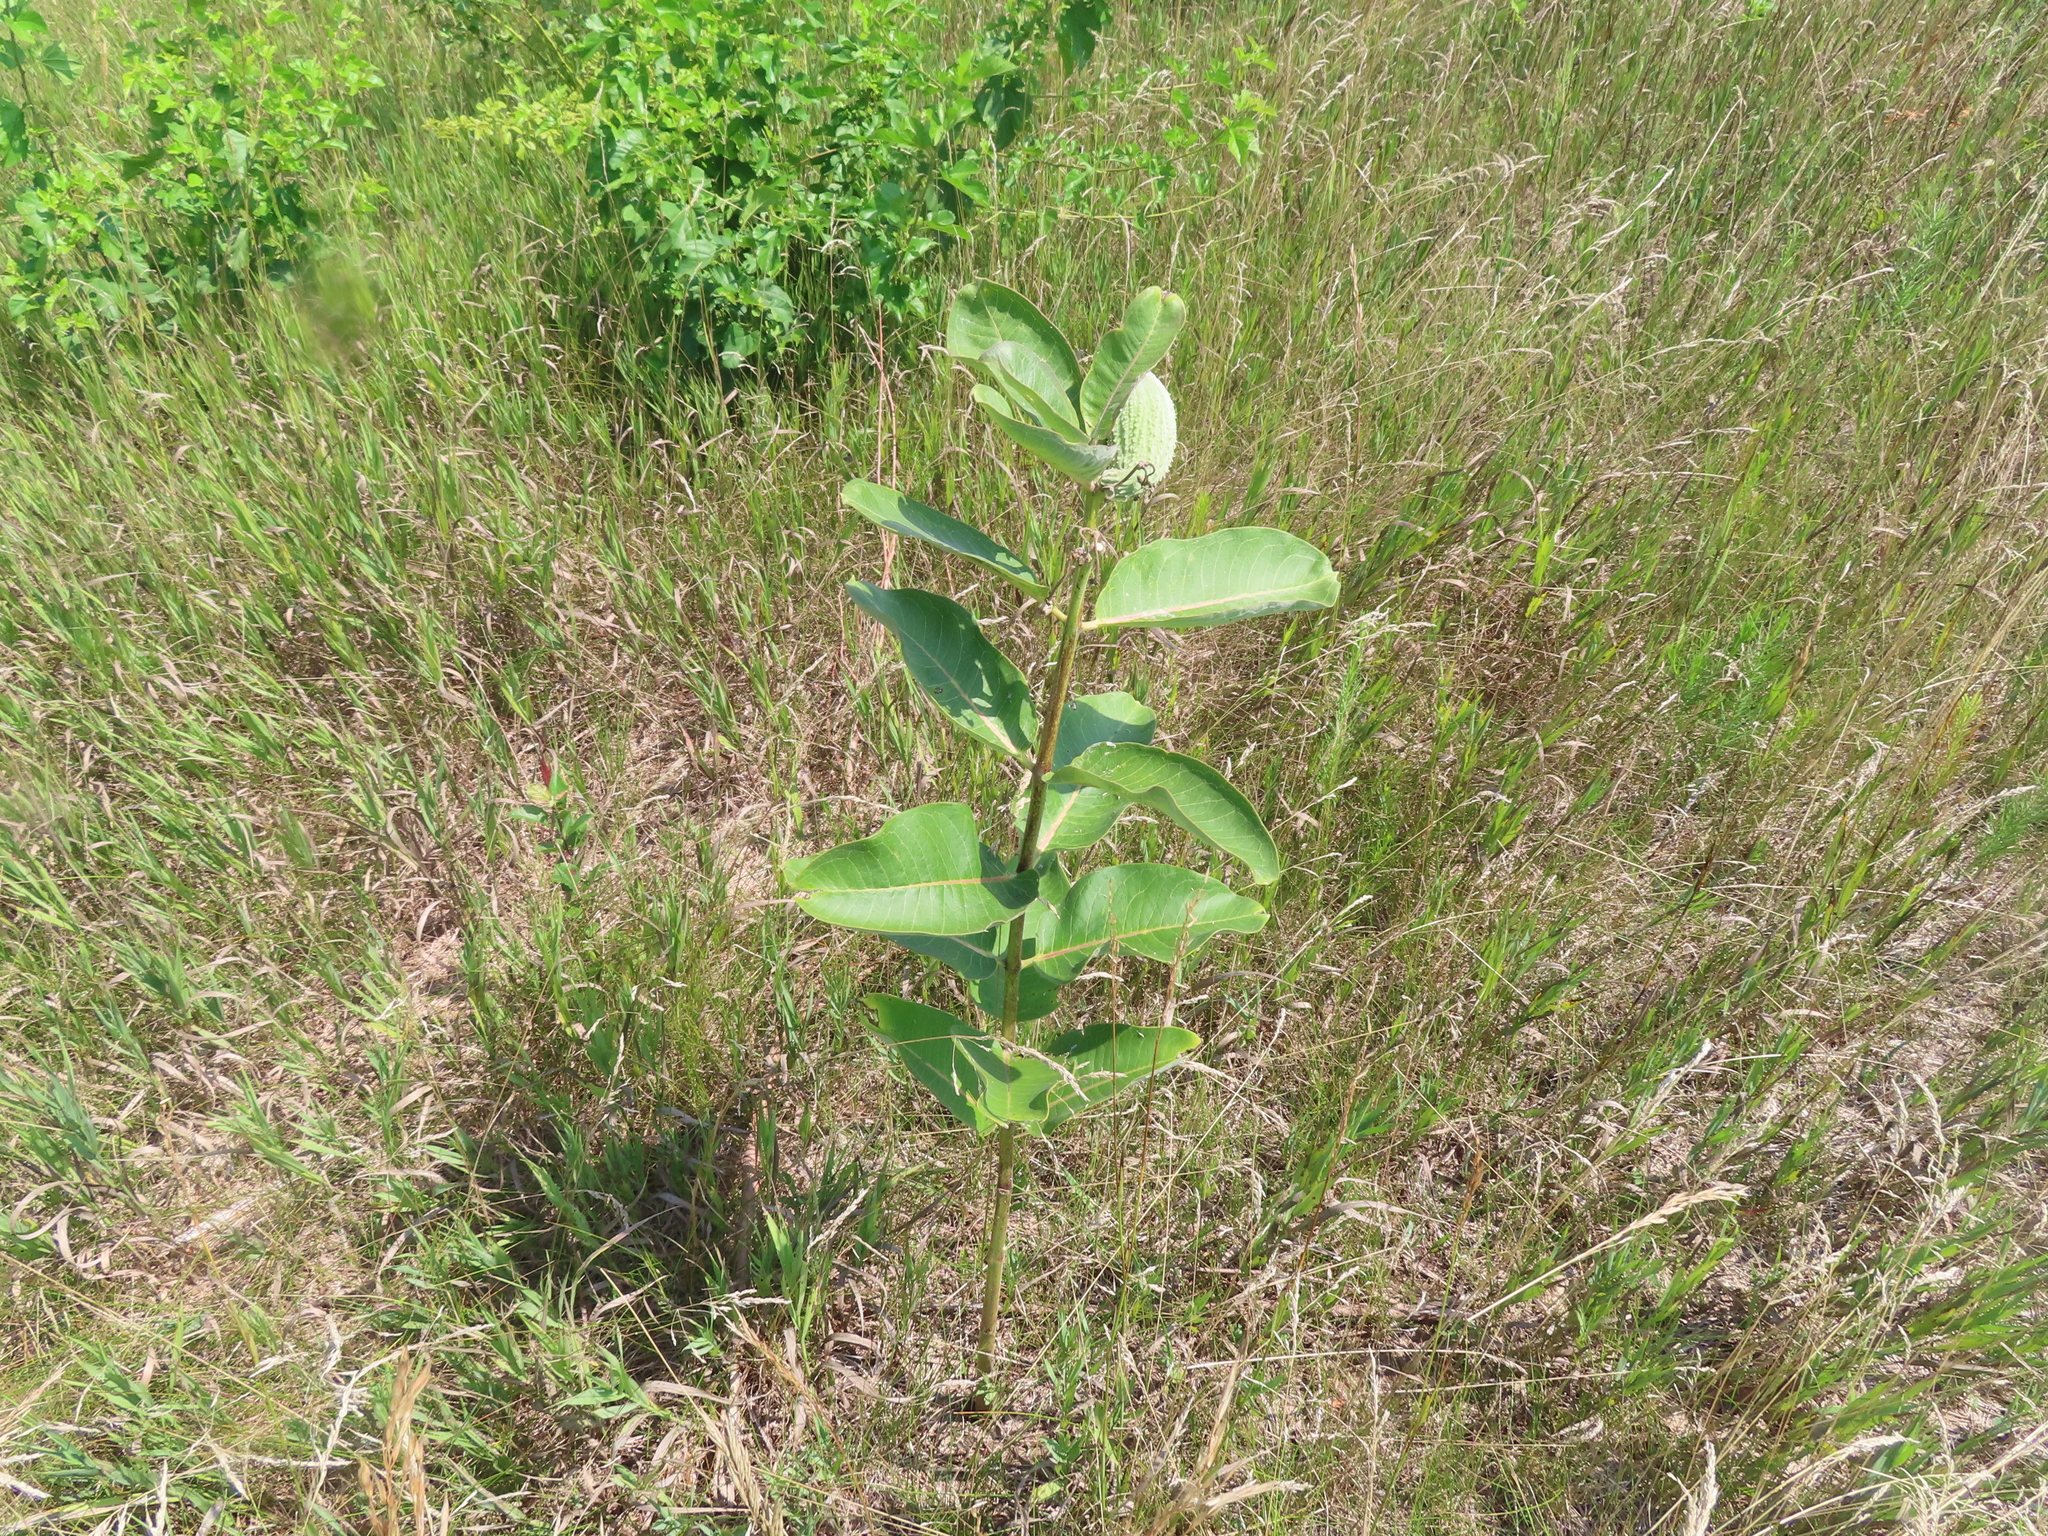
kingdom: Plantae
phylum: Tracheophyta
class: Magnoliopsida
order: Gentianales
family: Apocynaceae
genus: Asclepias
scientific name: Asclepias syriaca
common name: Common milkweed
